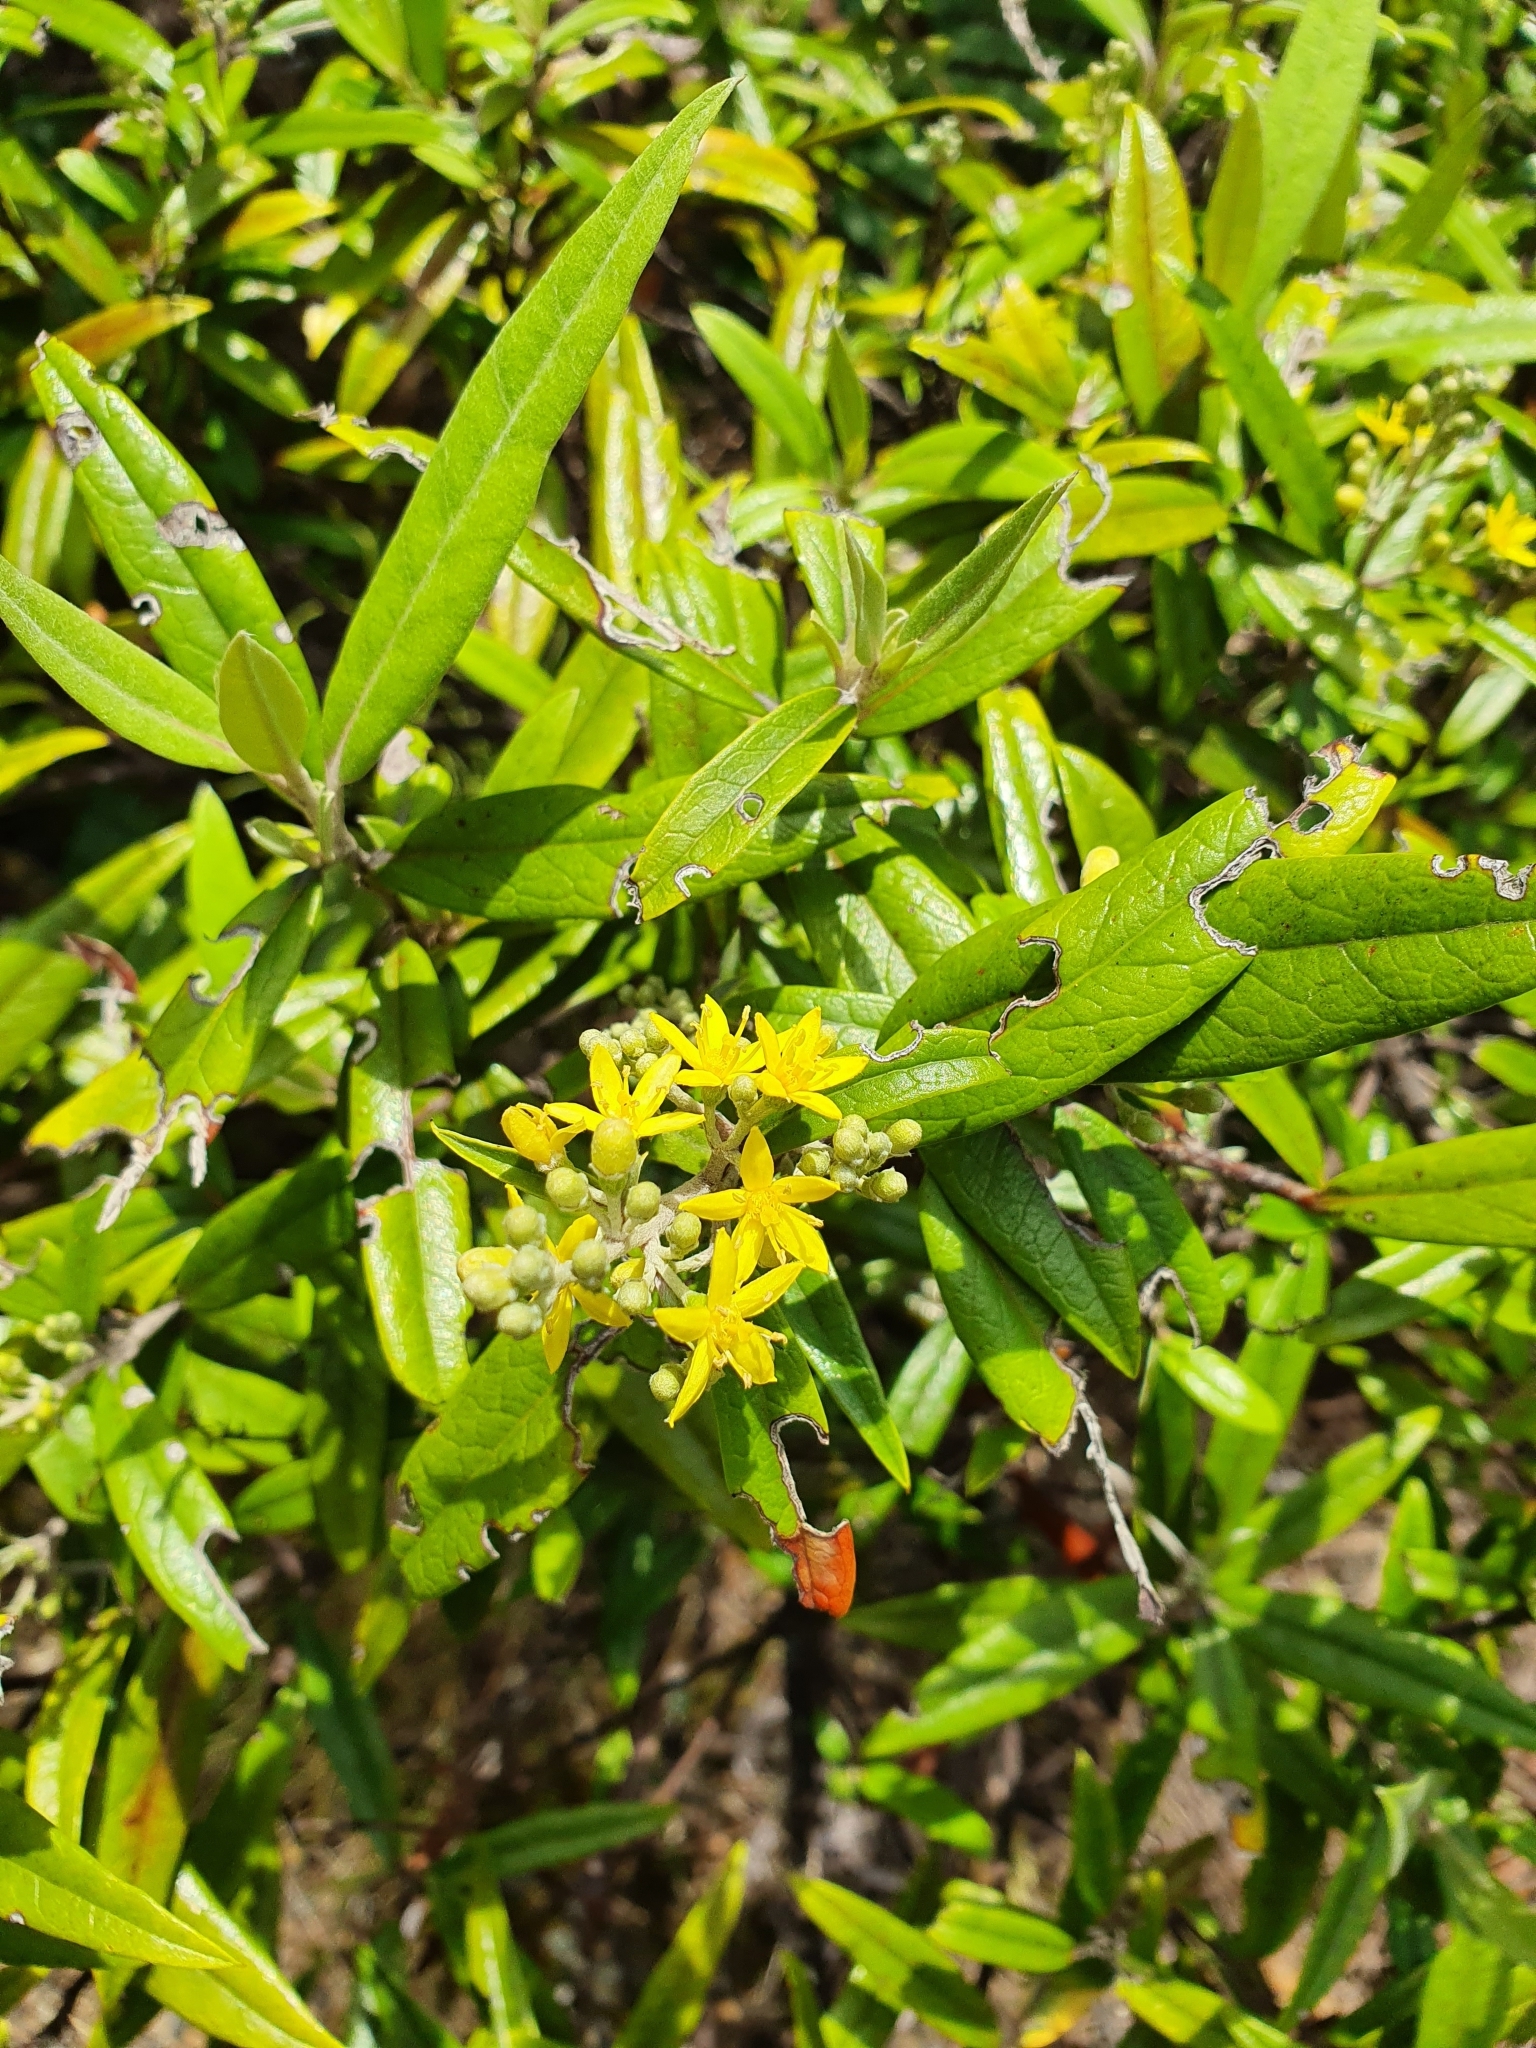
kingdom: Plantae
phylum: Tracheophyta
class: Magnoliopsida
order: Asterales
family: Argophyllaceae
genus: Corokia
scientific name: Corokia buddleioides
